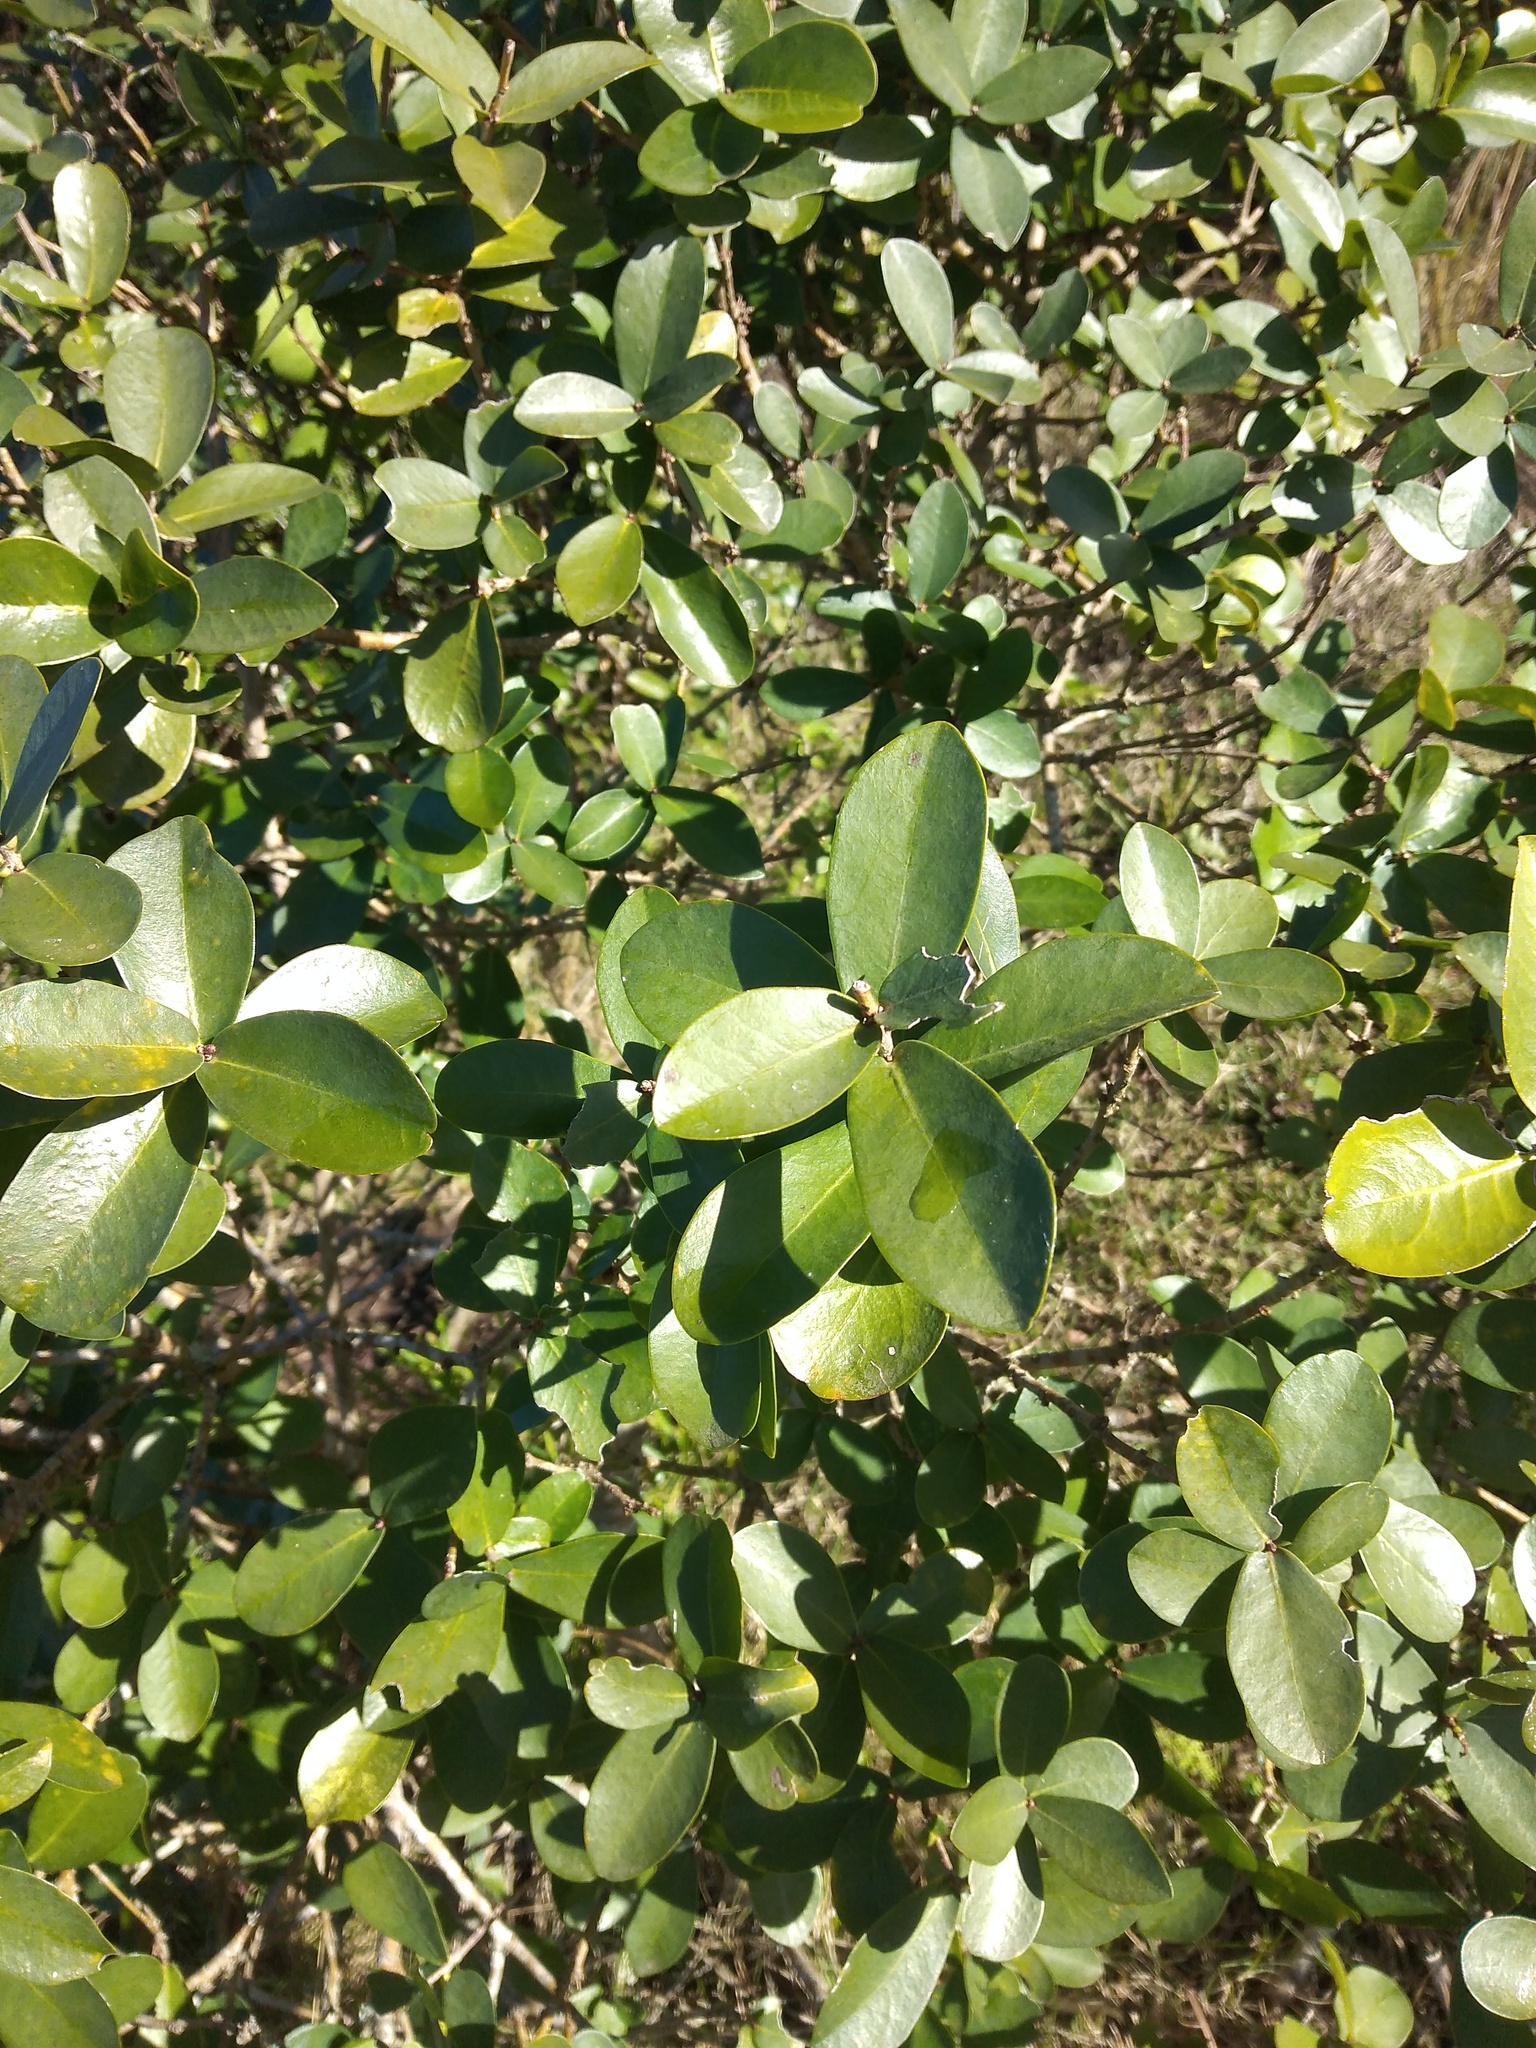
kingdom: Plantae
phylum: Tracheophyta
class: Magnoliopsida
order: Malvales
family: Thymelaeaceae
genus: Daphnopsis
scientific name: Daphnopsis racemosa
